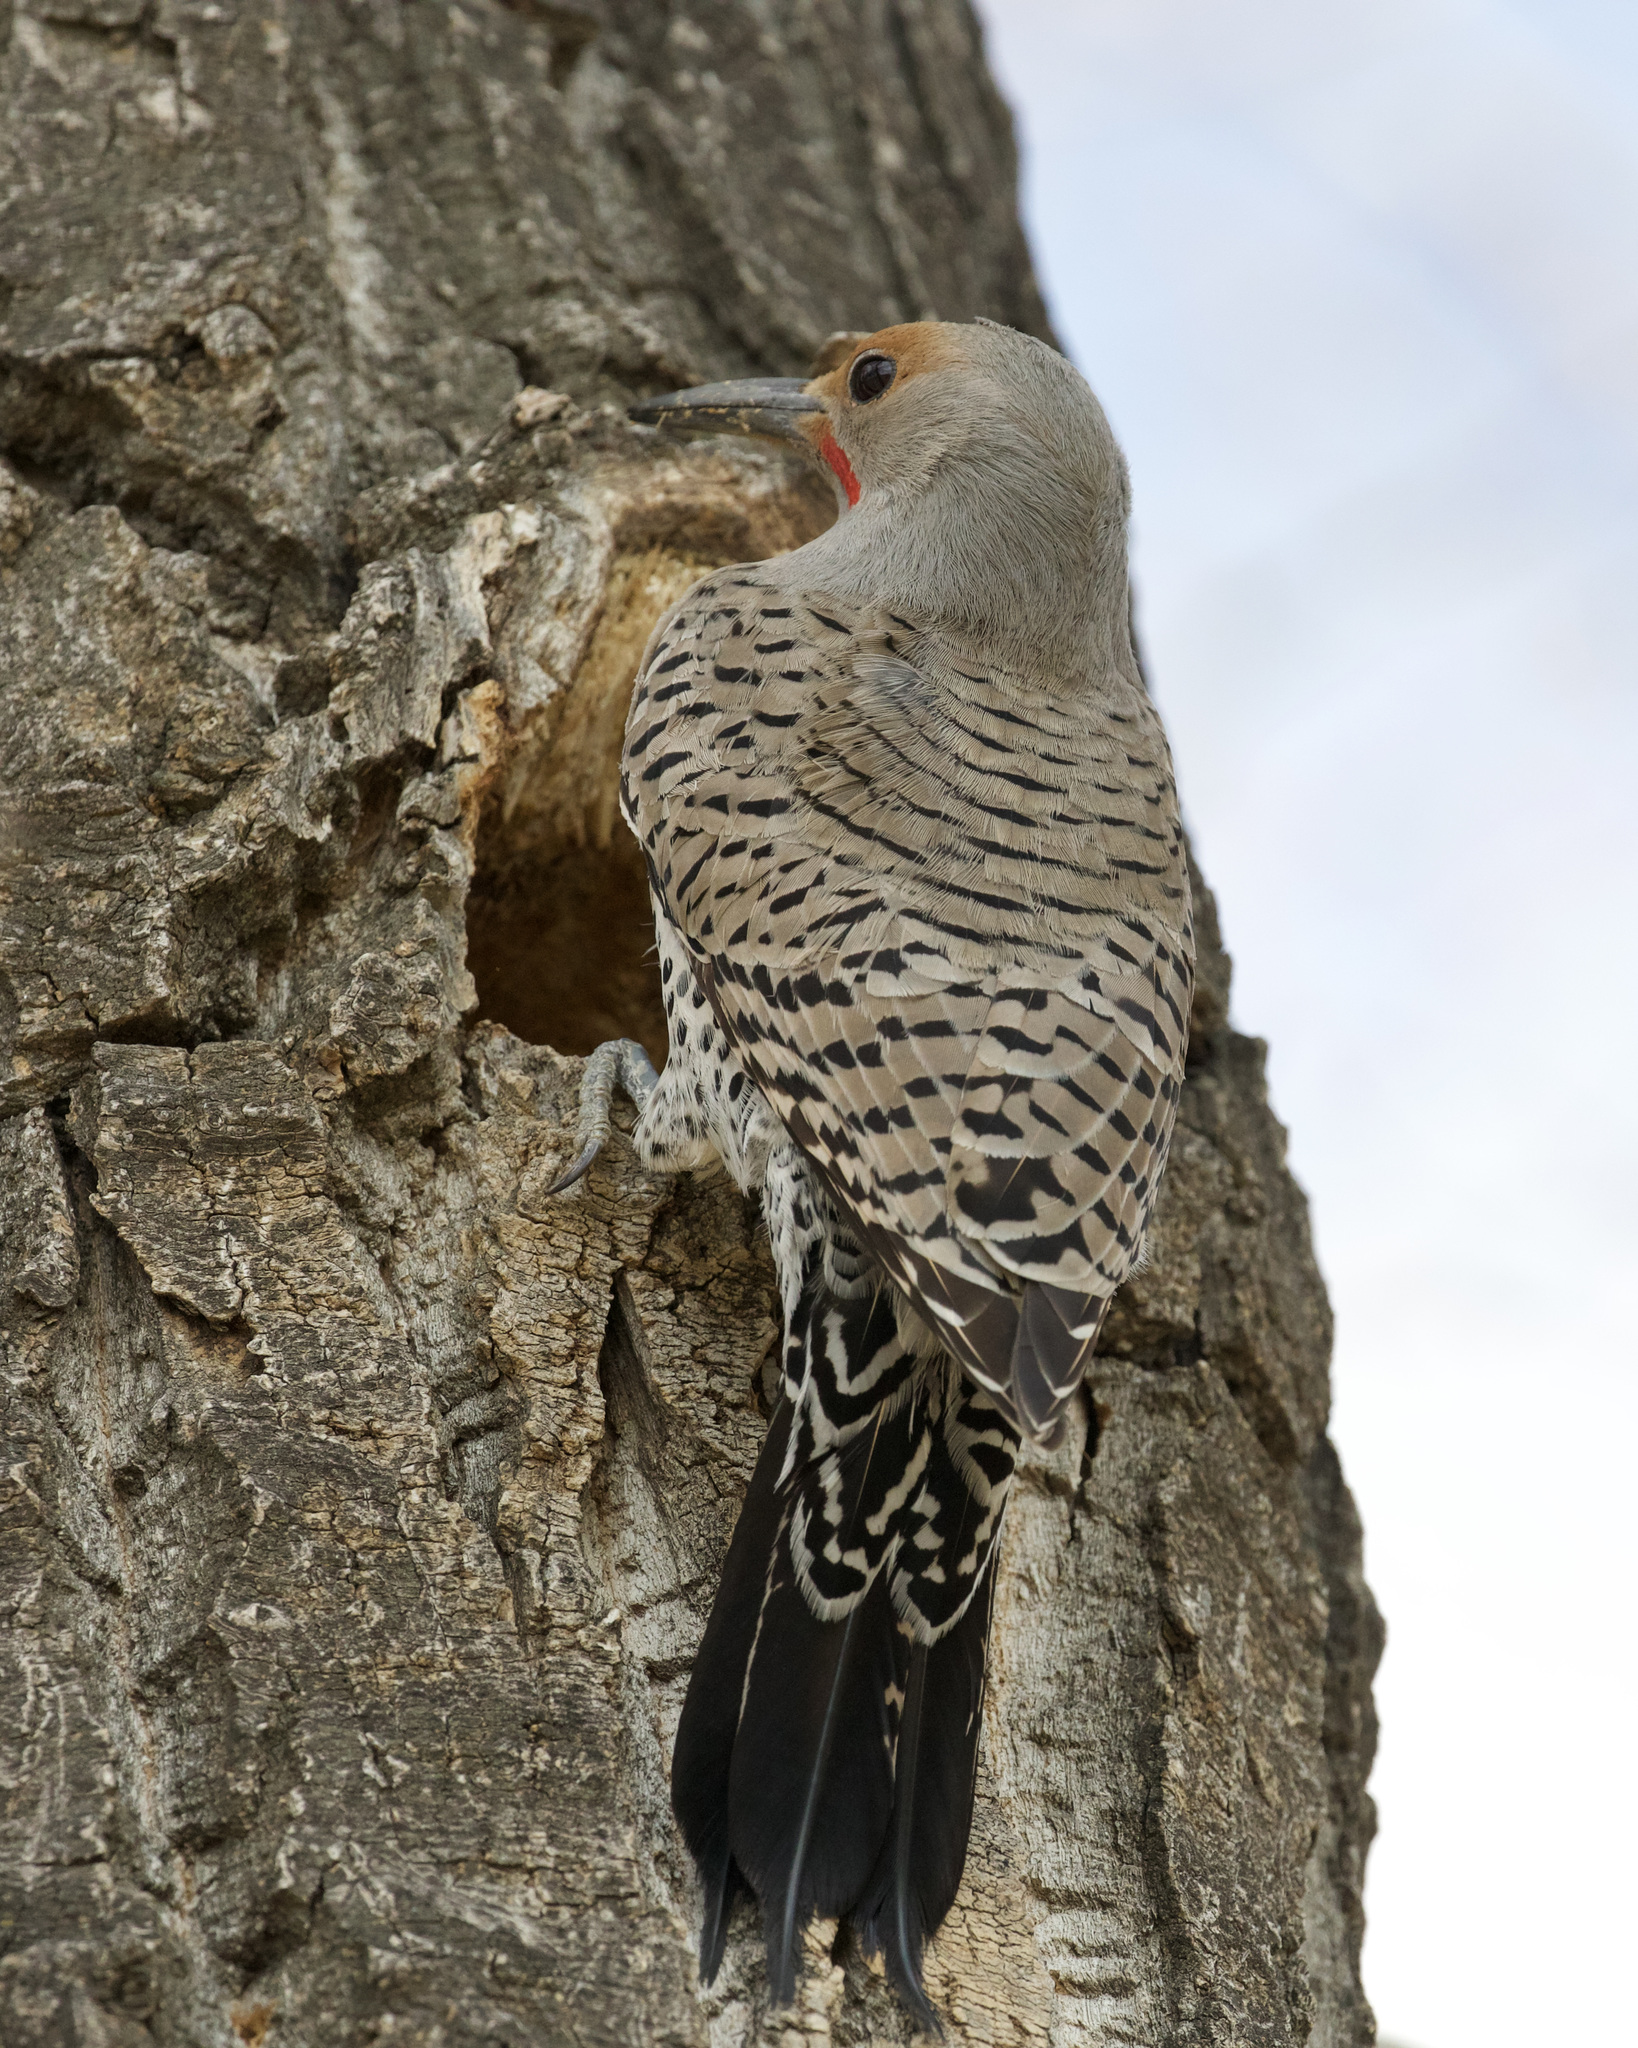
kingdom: Animalia
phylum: Chordata
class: Aves
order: Piciformes
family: Picidae
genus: Colaptes
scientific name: Colaptes auratus
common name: Northern flicker
